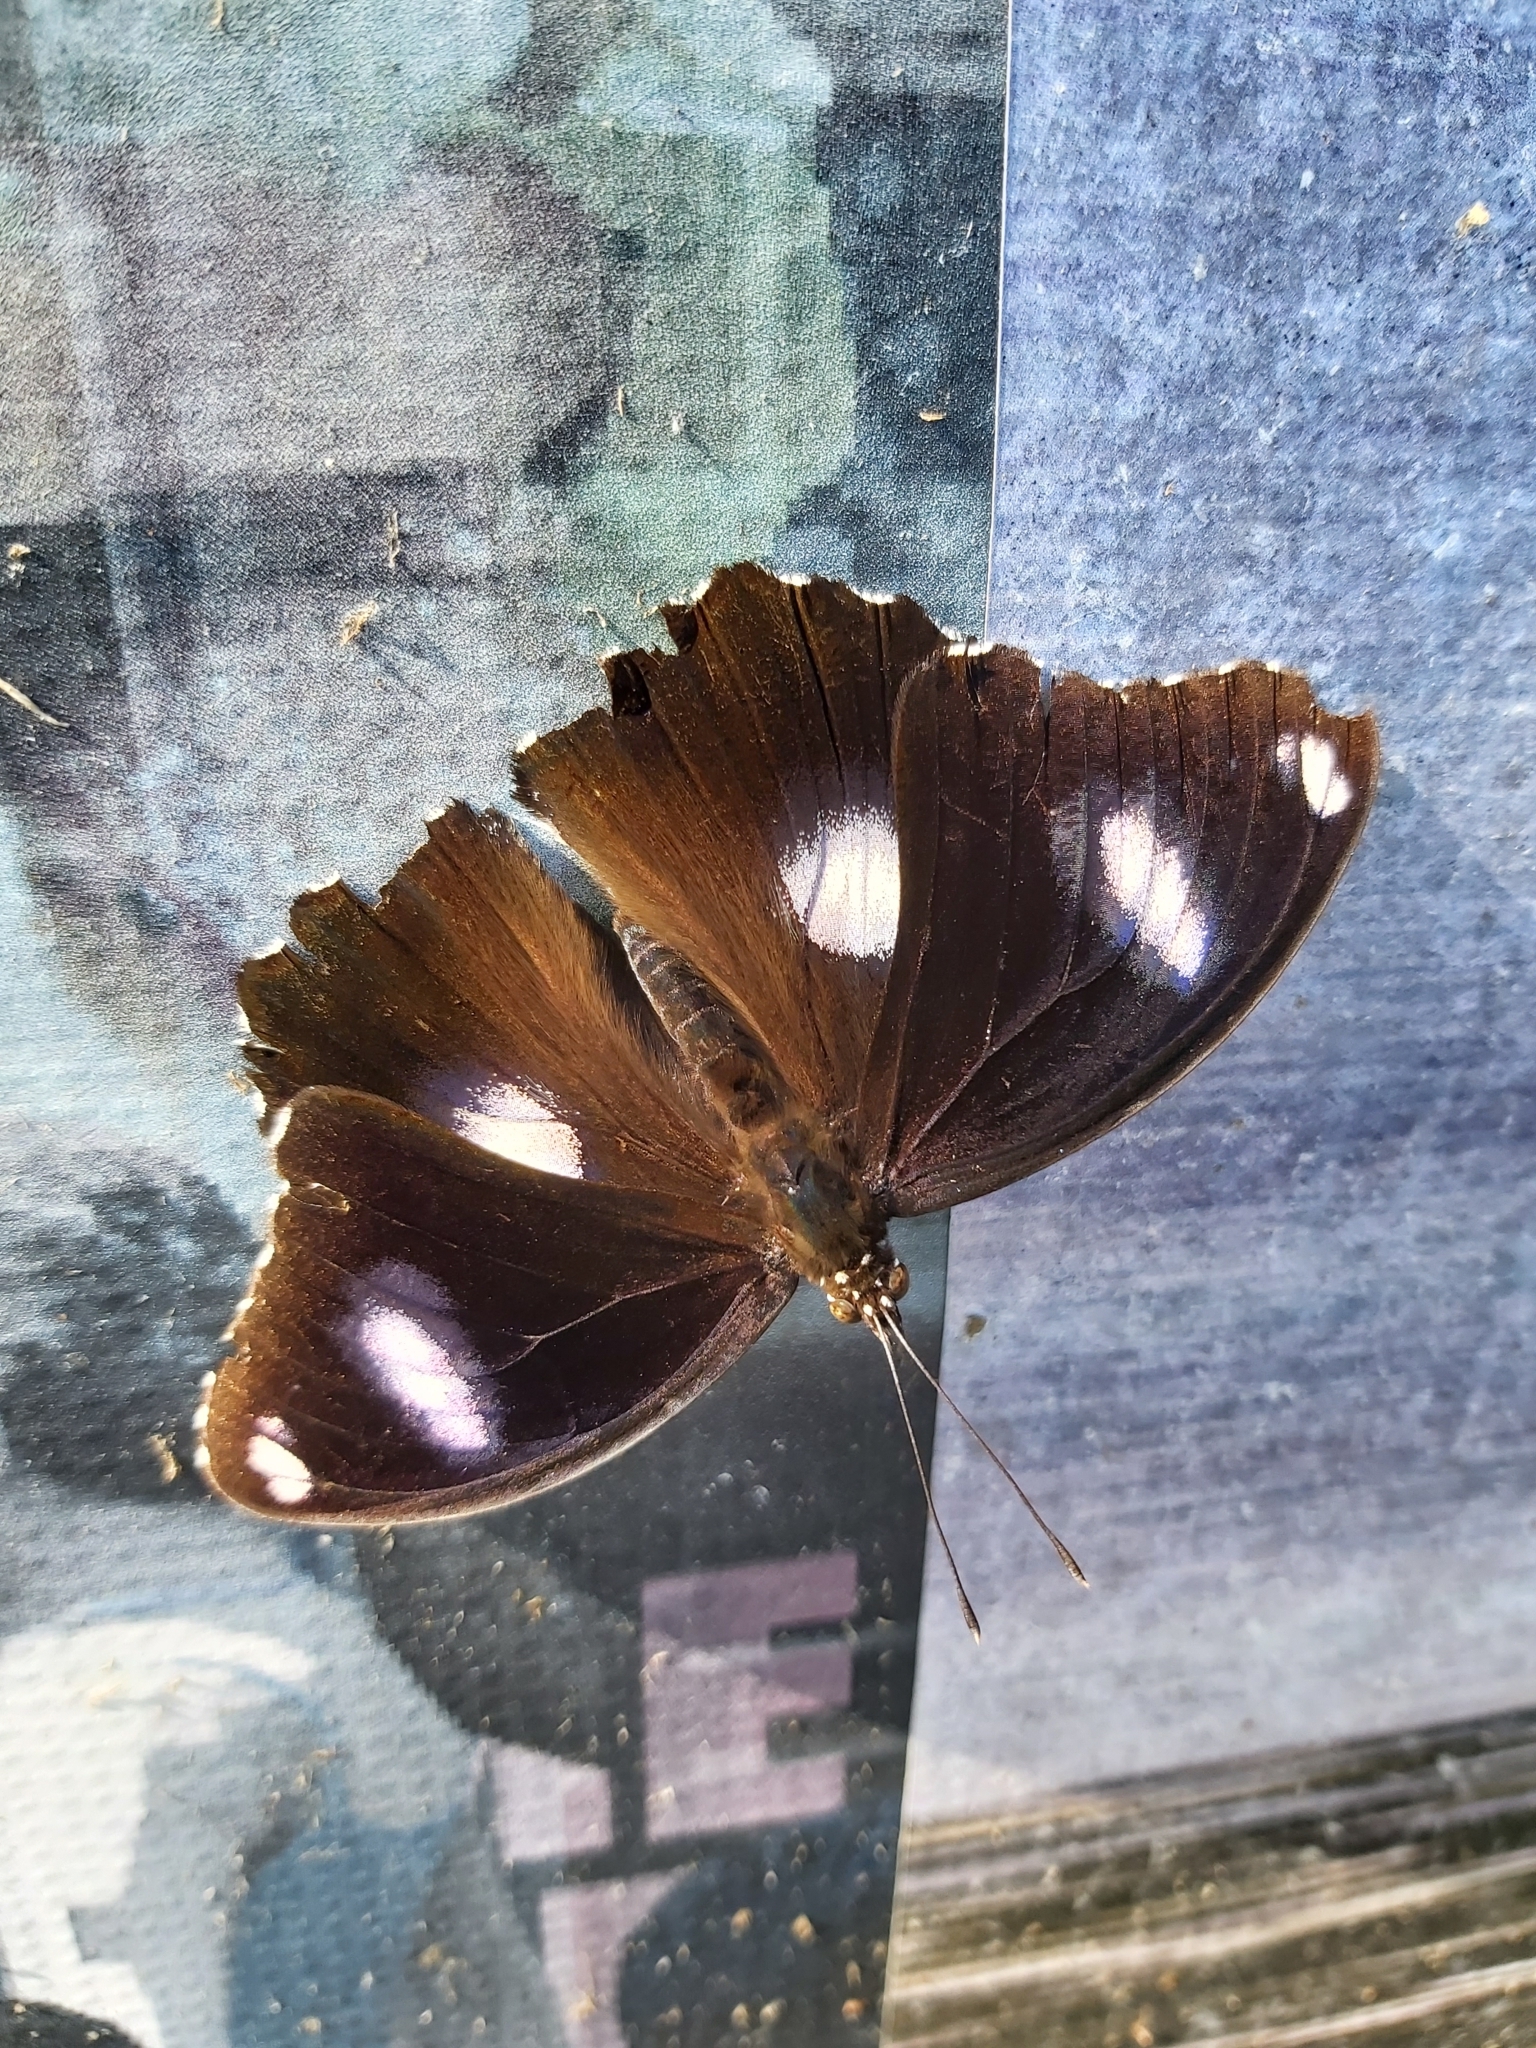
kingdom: Animalia
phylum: Arthropoda
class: Insecta
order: Lepidoptera
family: Nymphalidae
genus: Hypolimnas
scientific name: Hypolimnas bolina
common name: Great eggfly
